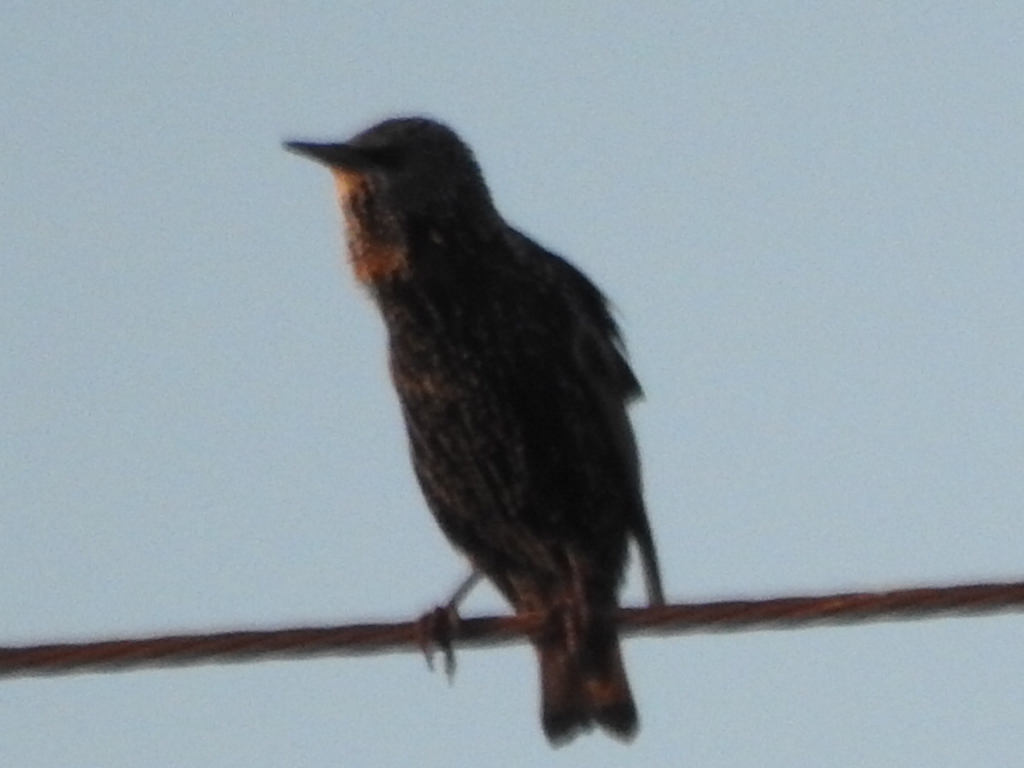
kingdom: Animalia
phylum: Chordata
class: Aves
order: Passeriformes
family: Sturnidae
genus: Sturnus
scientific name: Sturnus vulgaris
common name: Common starling
